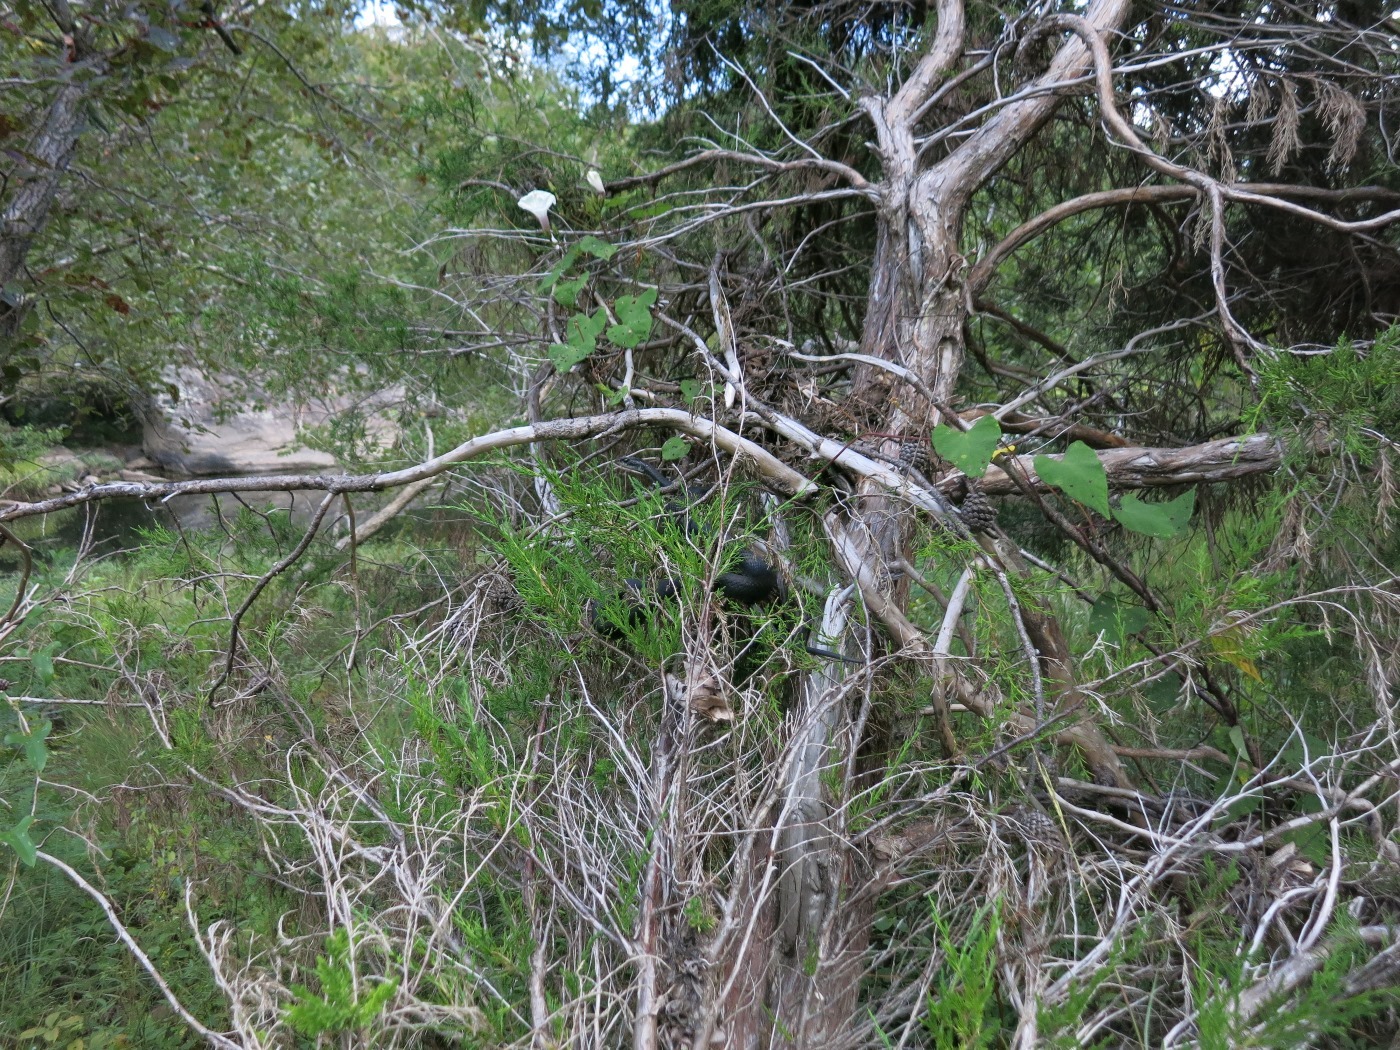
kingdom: Animalia
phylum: Chordata
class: Squamata
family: Colubridae
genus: Coluber
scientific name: Coluber constrictor
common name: Eastern racer
